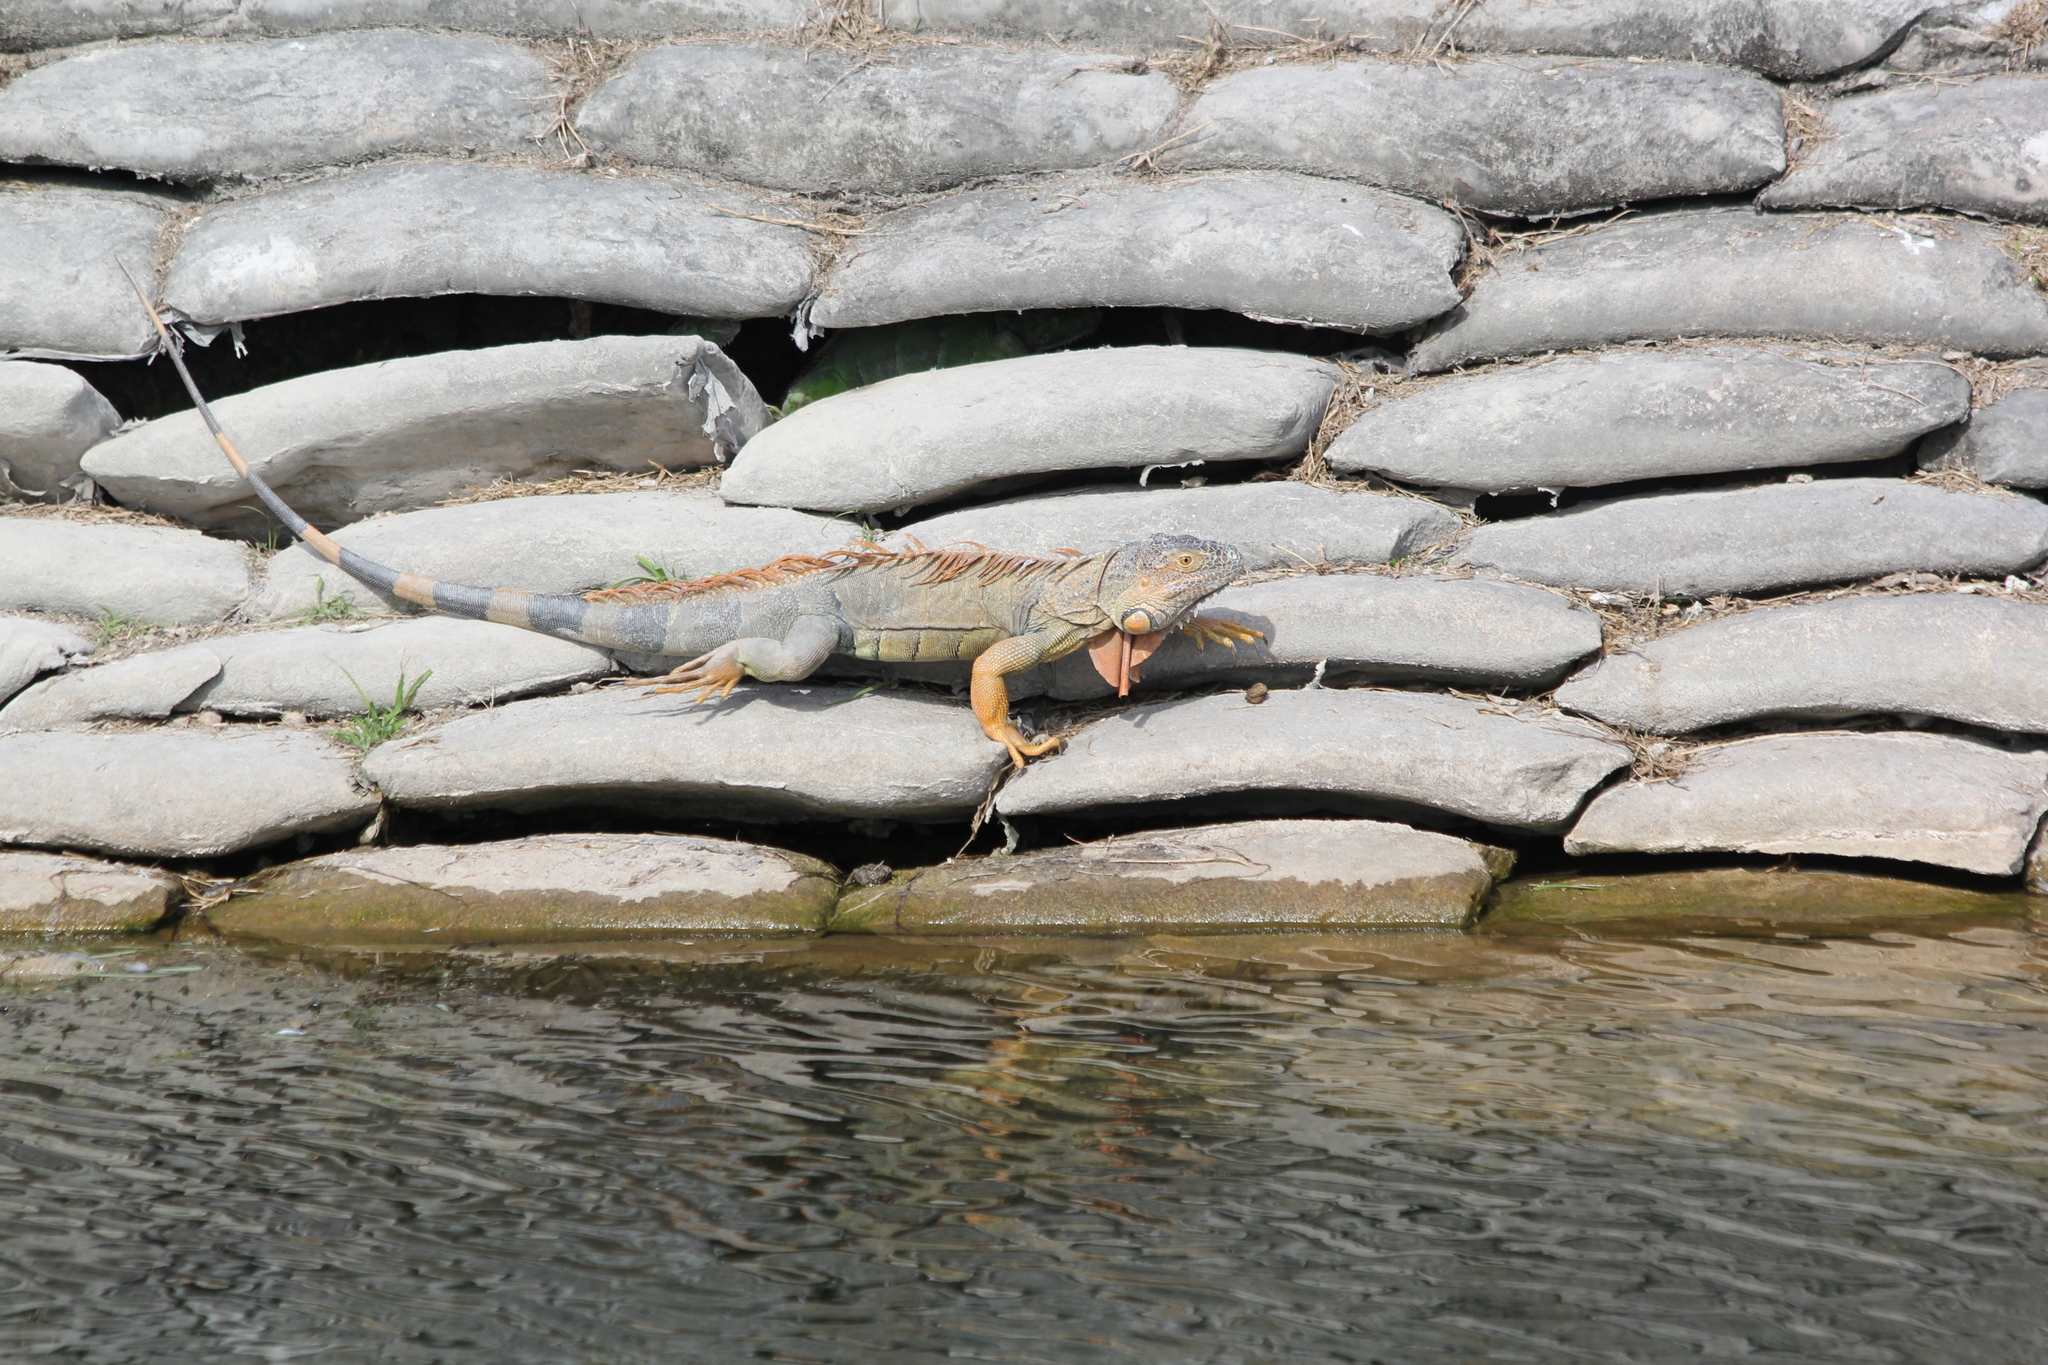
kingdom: Animalia
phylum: Chordata
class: Squamata
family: Iguanidae
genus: Iguana
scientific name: Iguana iguana
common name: Green iguana
